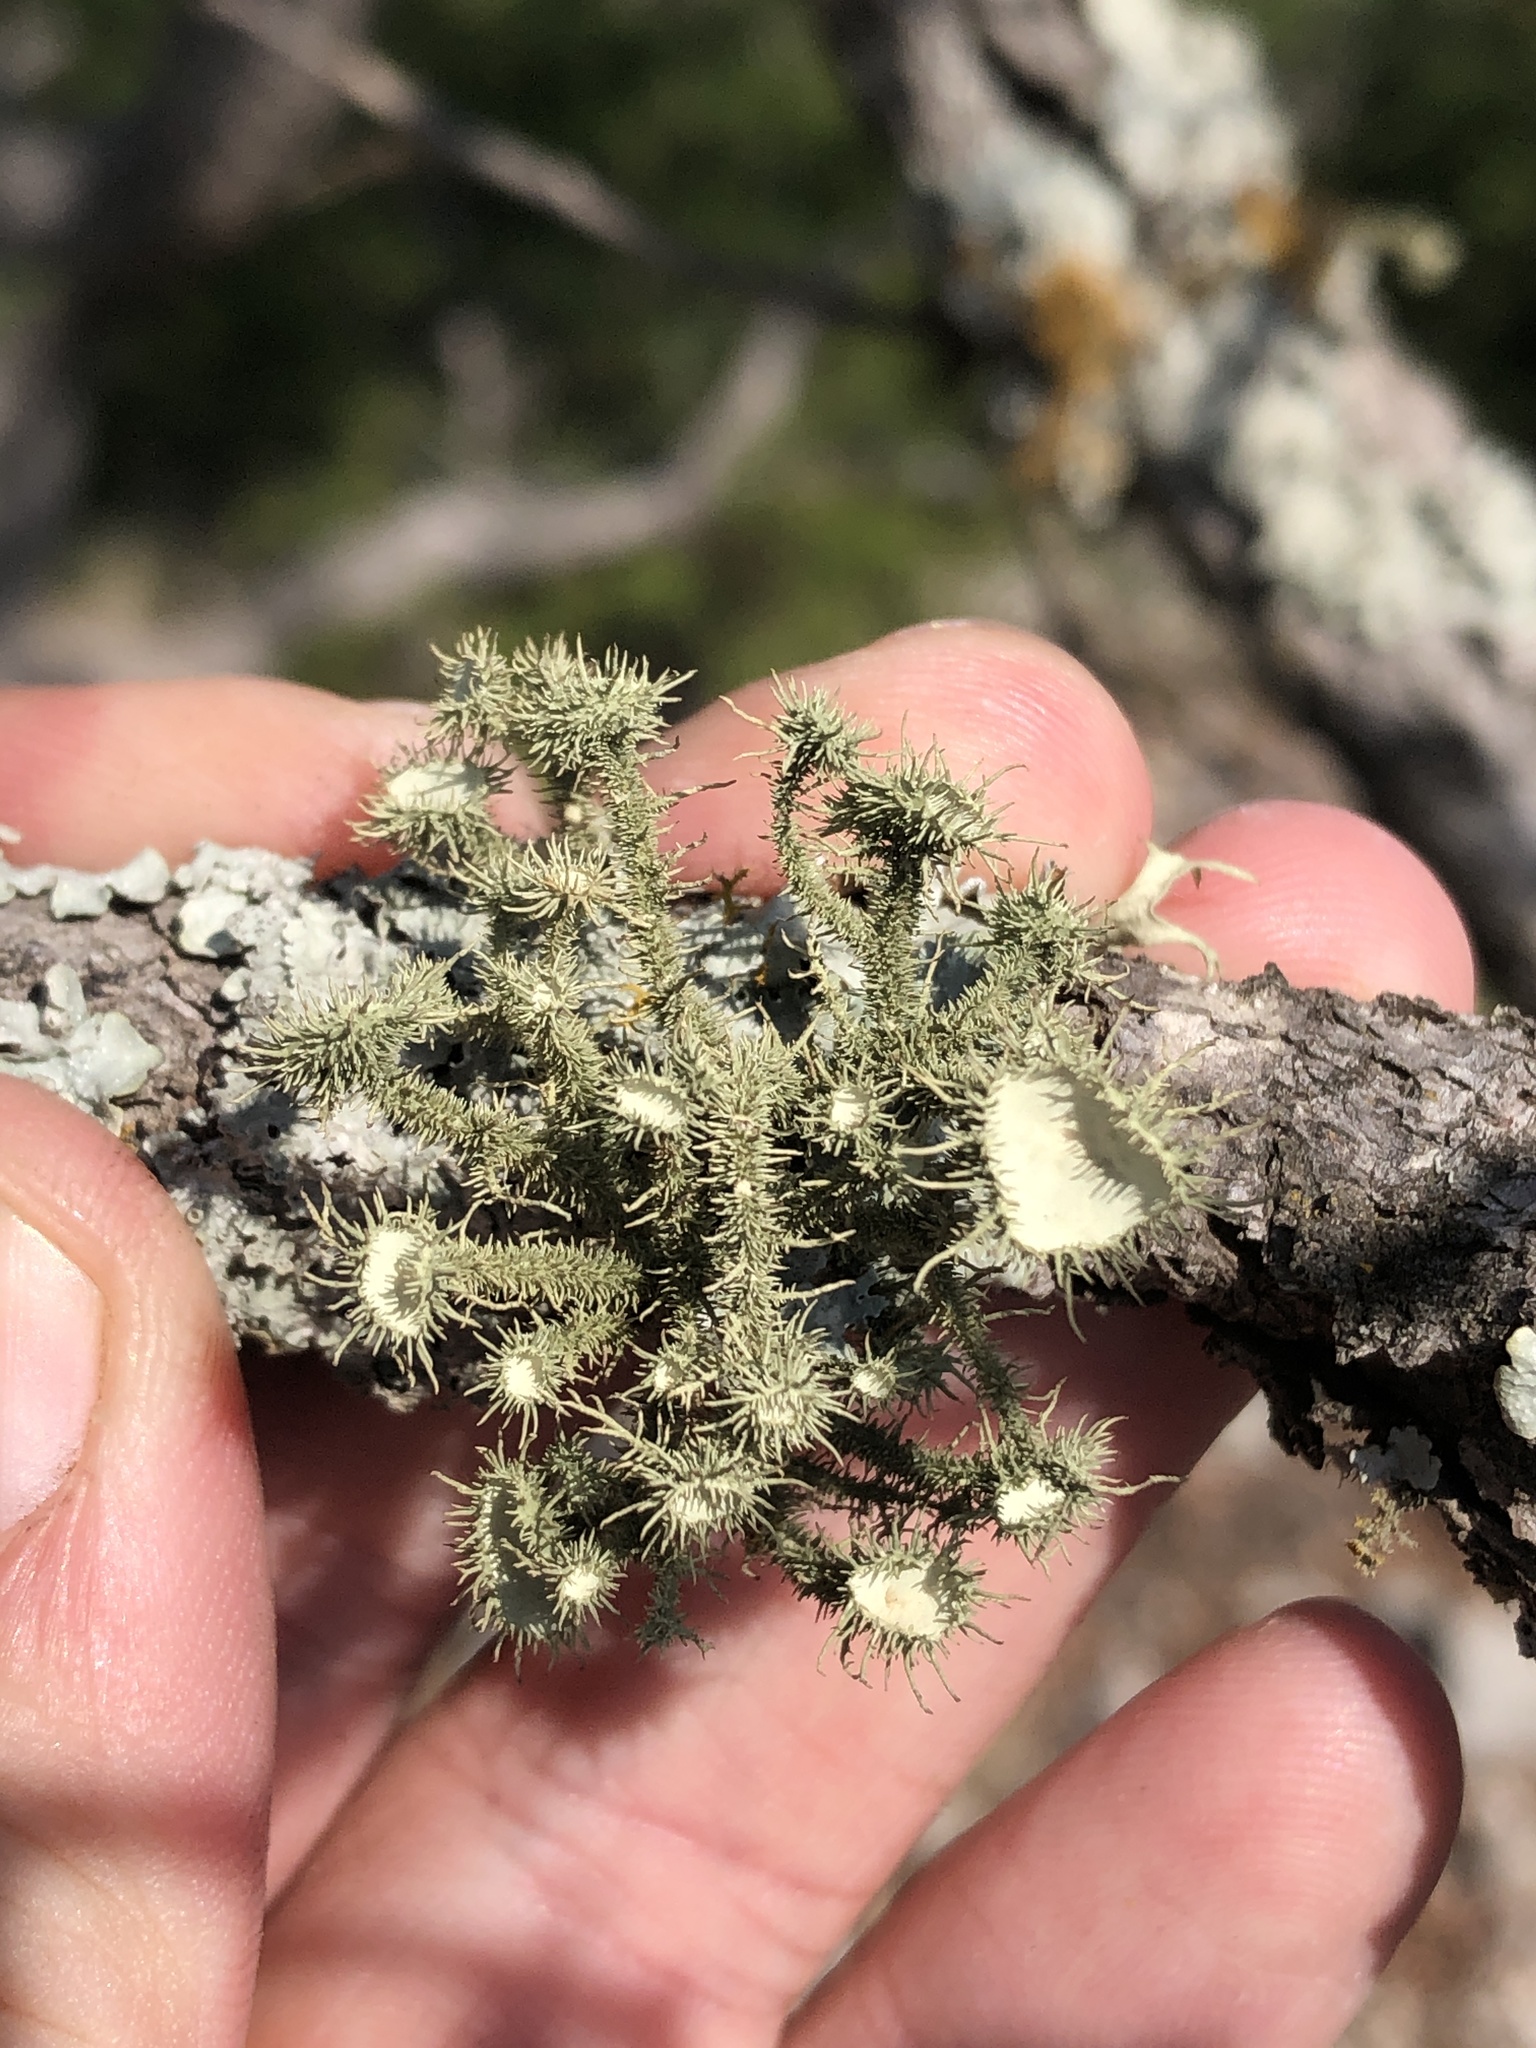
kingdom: Fungi
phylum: Ascomycota
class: Lecanoromycetes
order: Lecanorales
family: Parmeliaceae
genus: Usnea
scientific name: Usnea strigosa
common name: Bushy beard lichen
